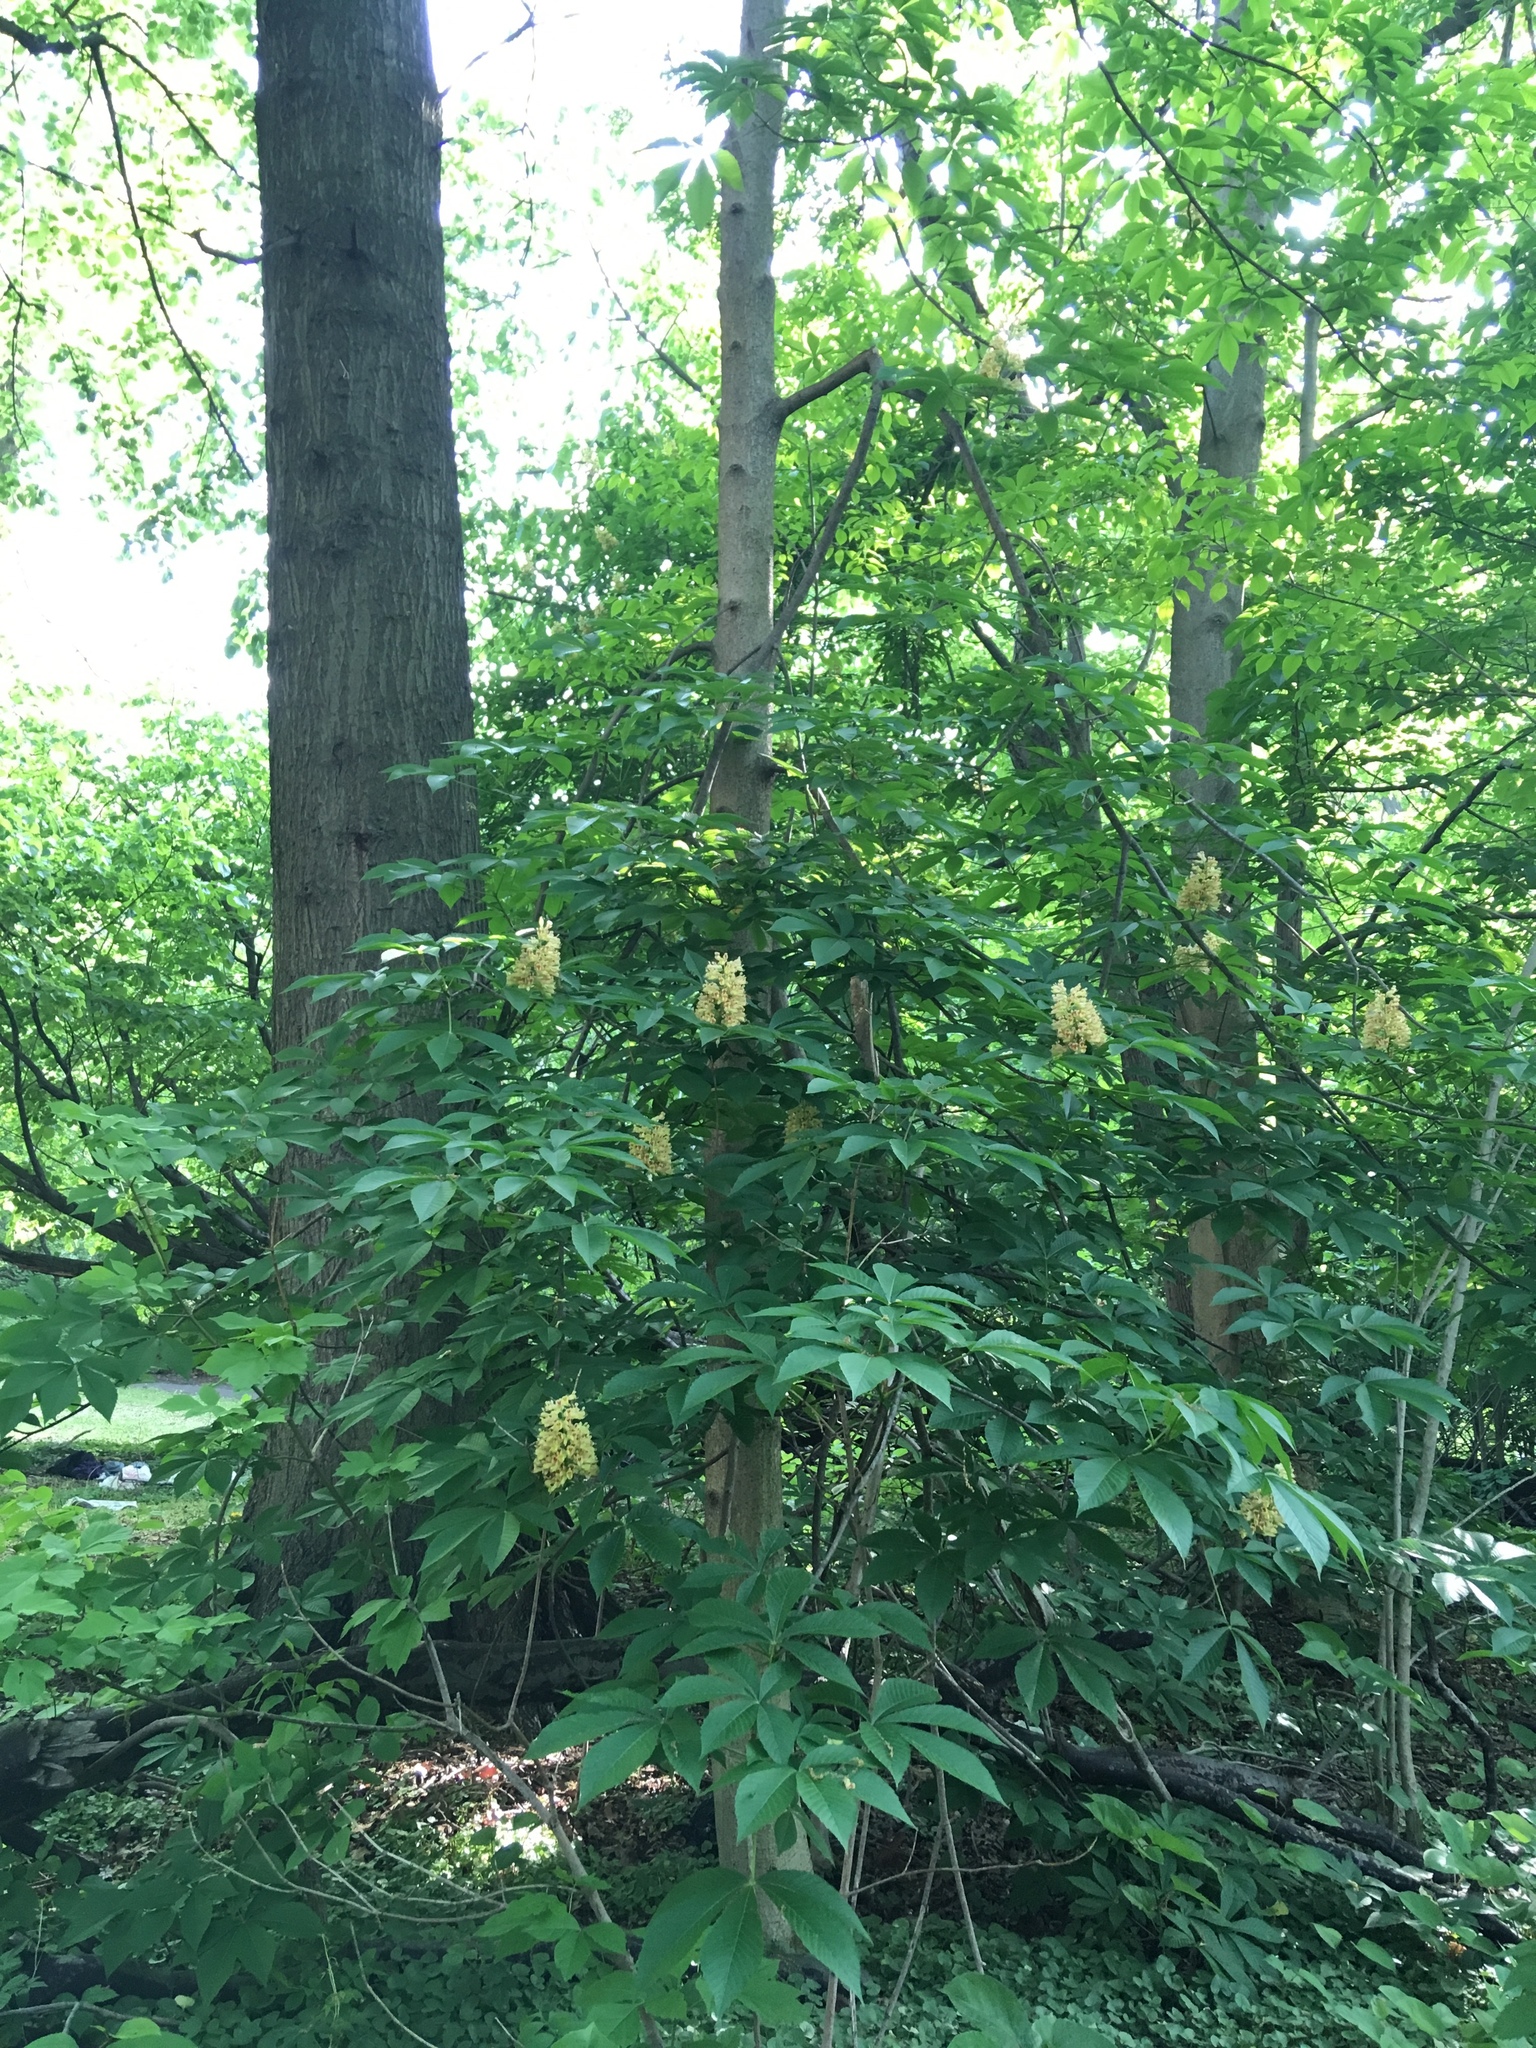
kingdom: Plantae
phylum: Tracheophyta
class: Magnoliopsida
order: Sapindales
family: Sapindaceae
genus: Aesculus
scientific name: Aesculus flava
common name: Yellow buckeye
